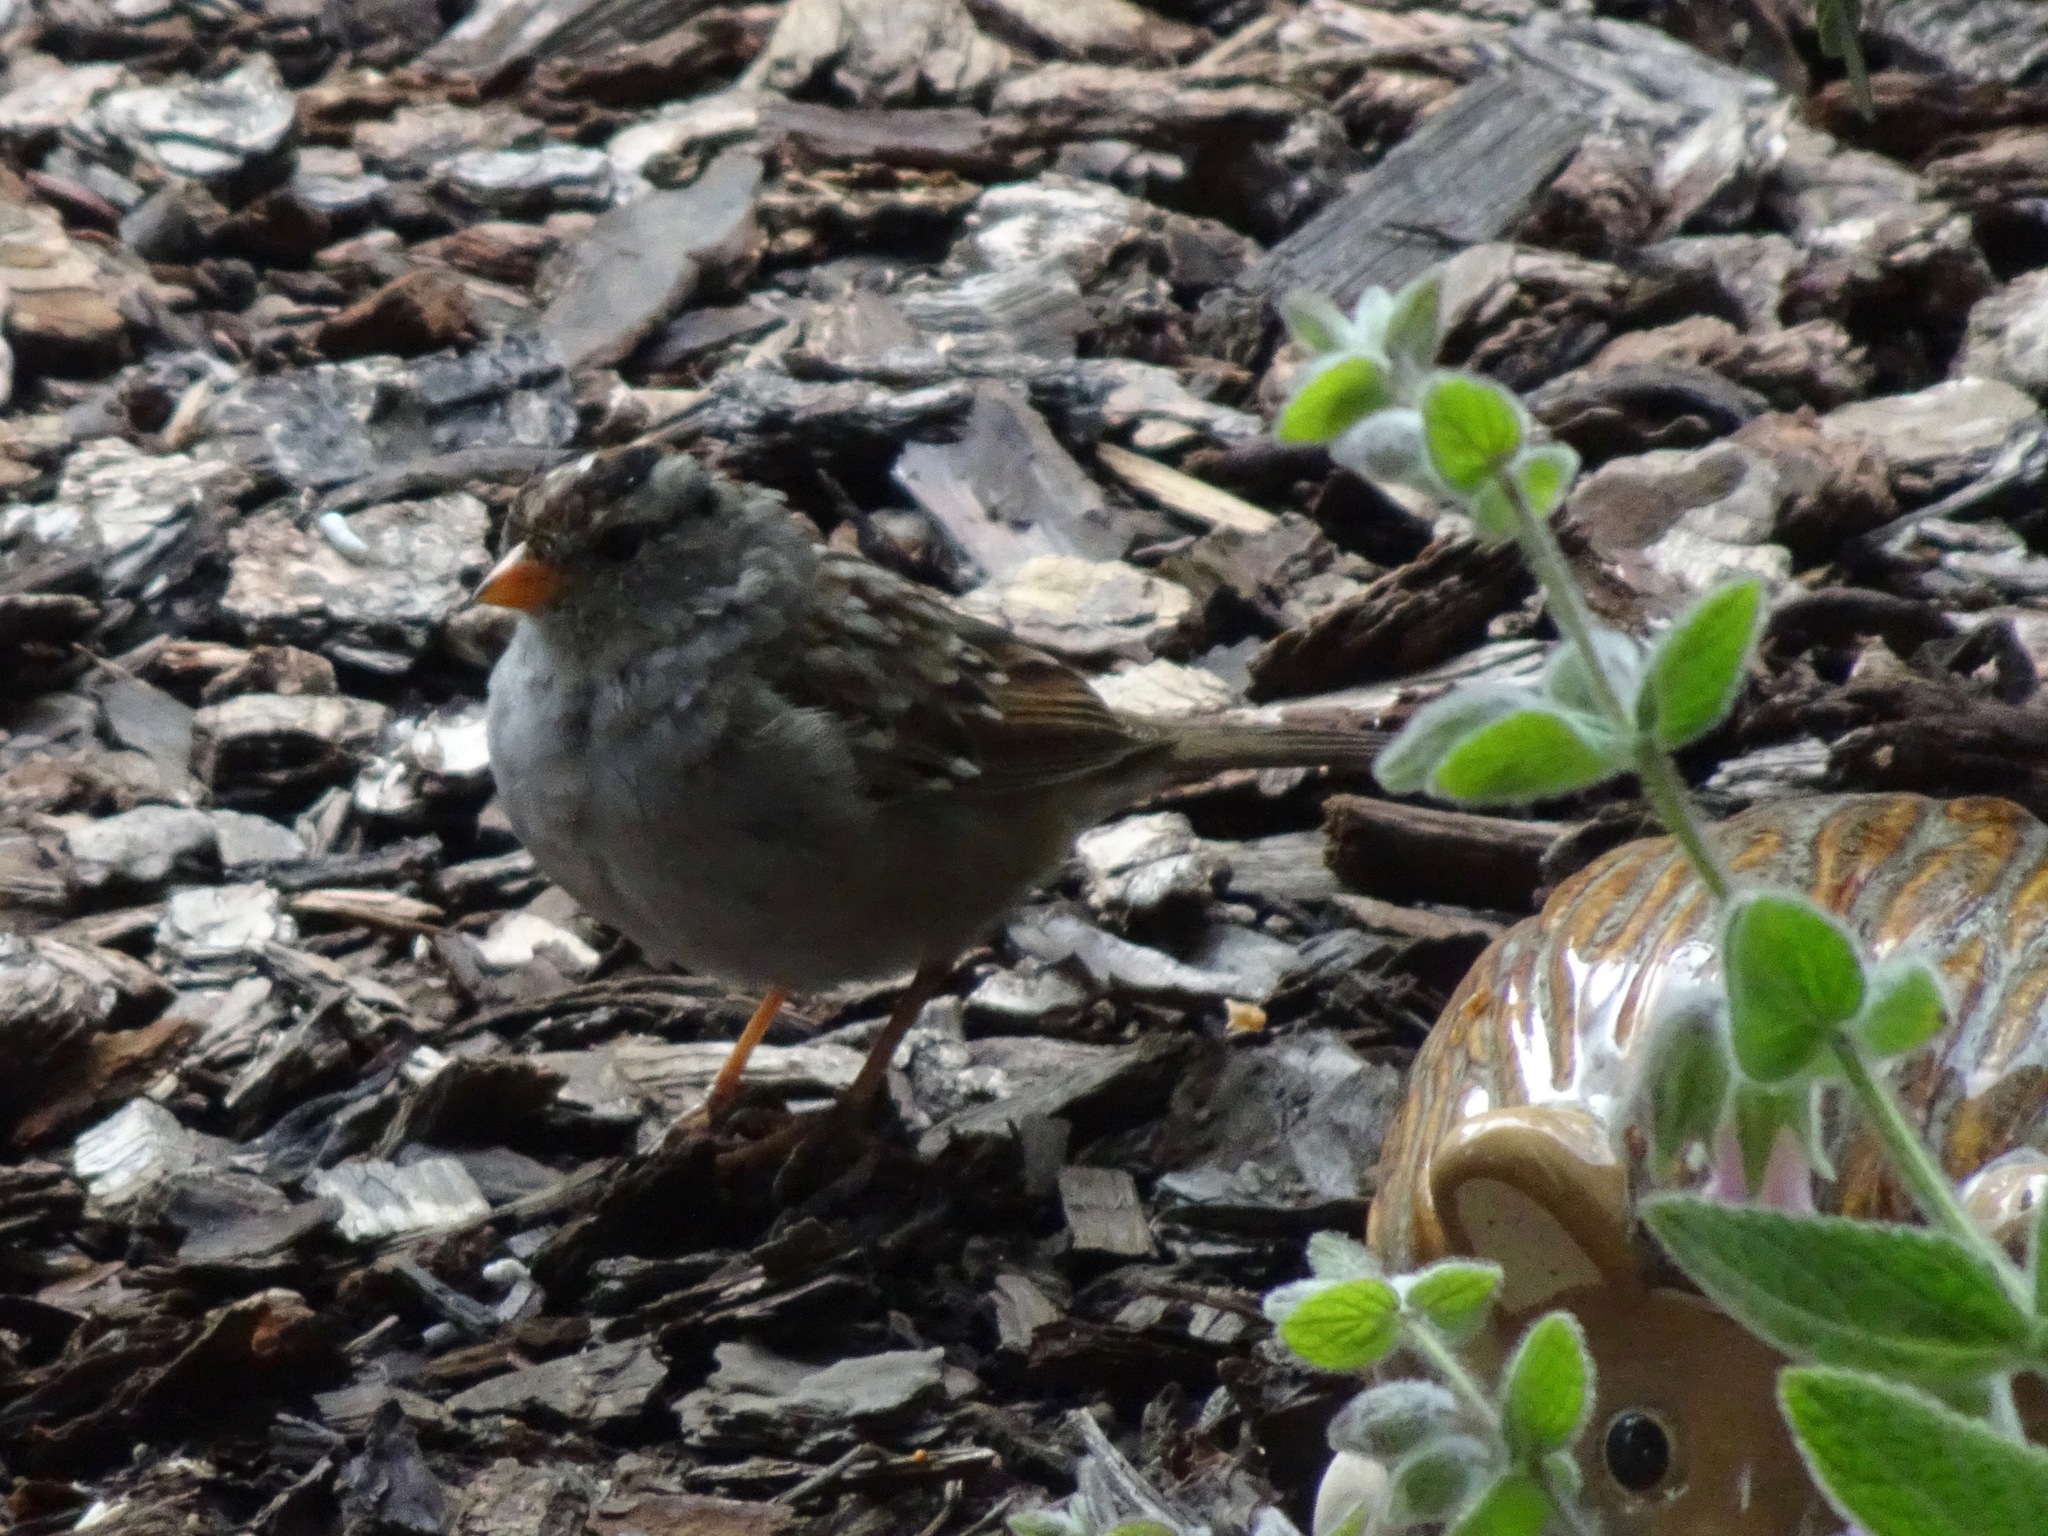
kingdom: Animalia
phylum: Chordata
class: Aves
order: Passeriformes
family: Passerellidae
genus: Zonotrichia
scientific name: Zonotrichia leucophrys
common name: White-crowned sparrow
